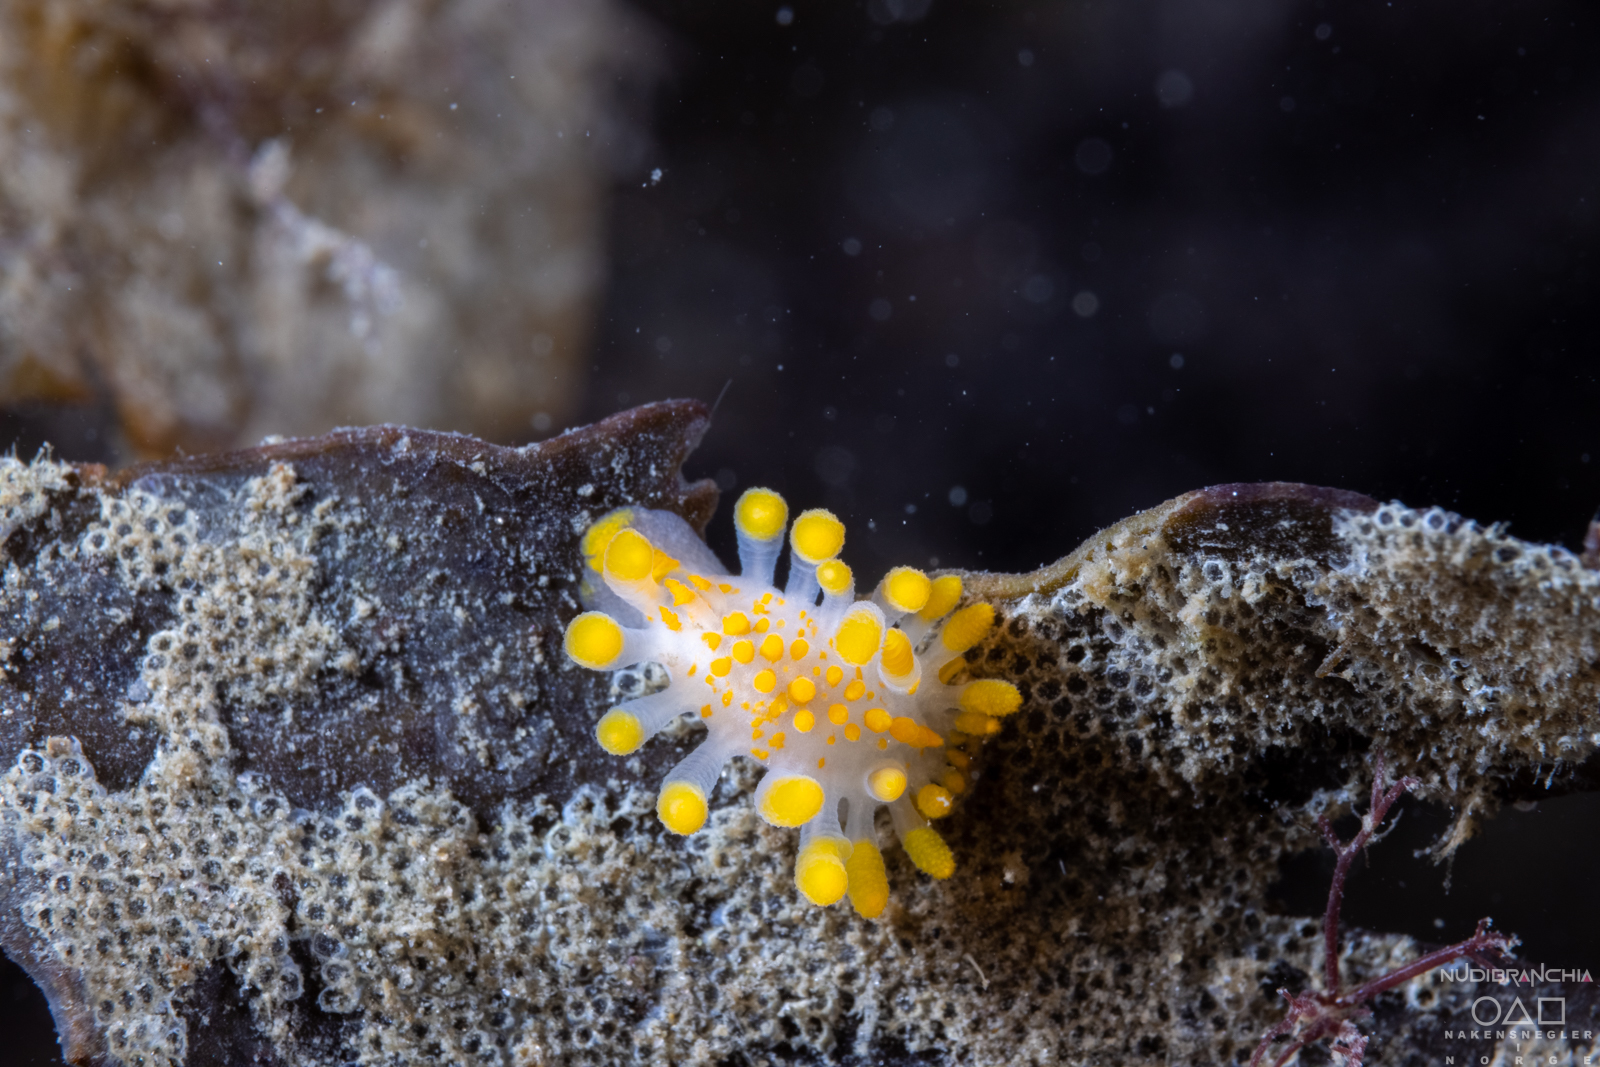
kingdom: Animalia
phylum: Mollusca
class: Gastropoda
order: Nudibranchia
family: Polyceridae
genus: Limacia
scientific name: Limacia clavigera
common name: Orange-clubbed sea slug
